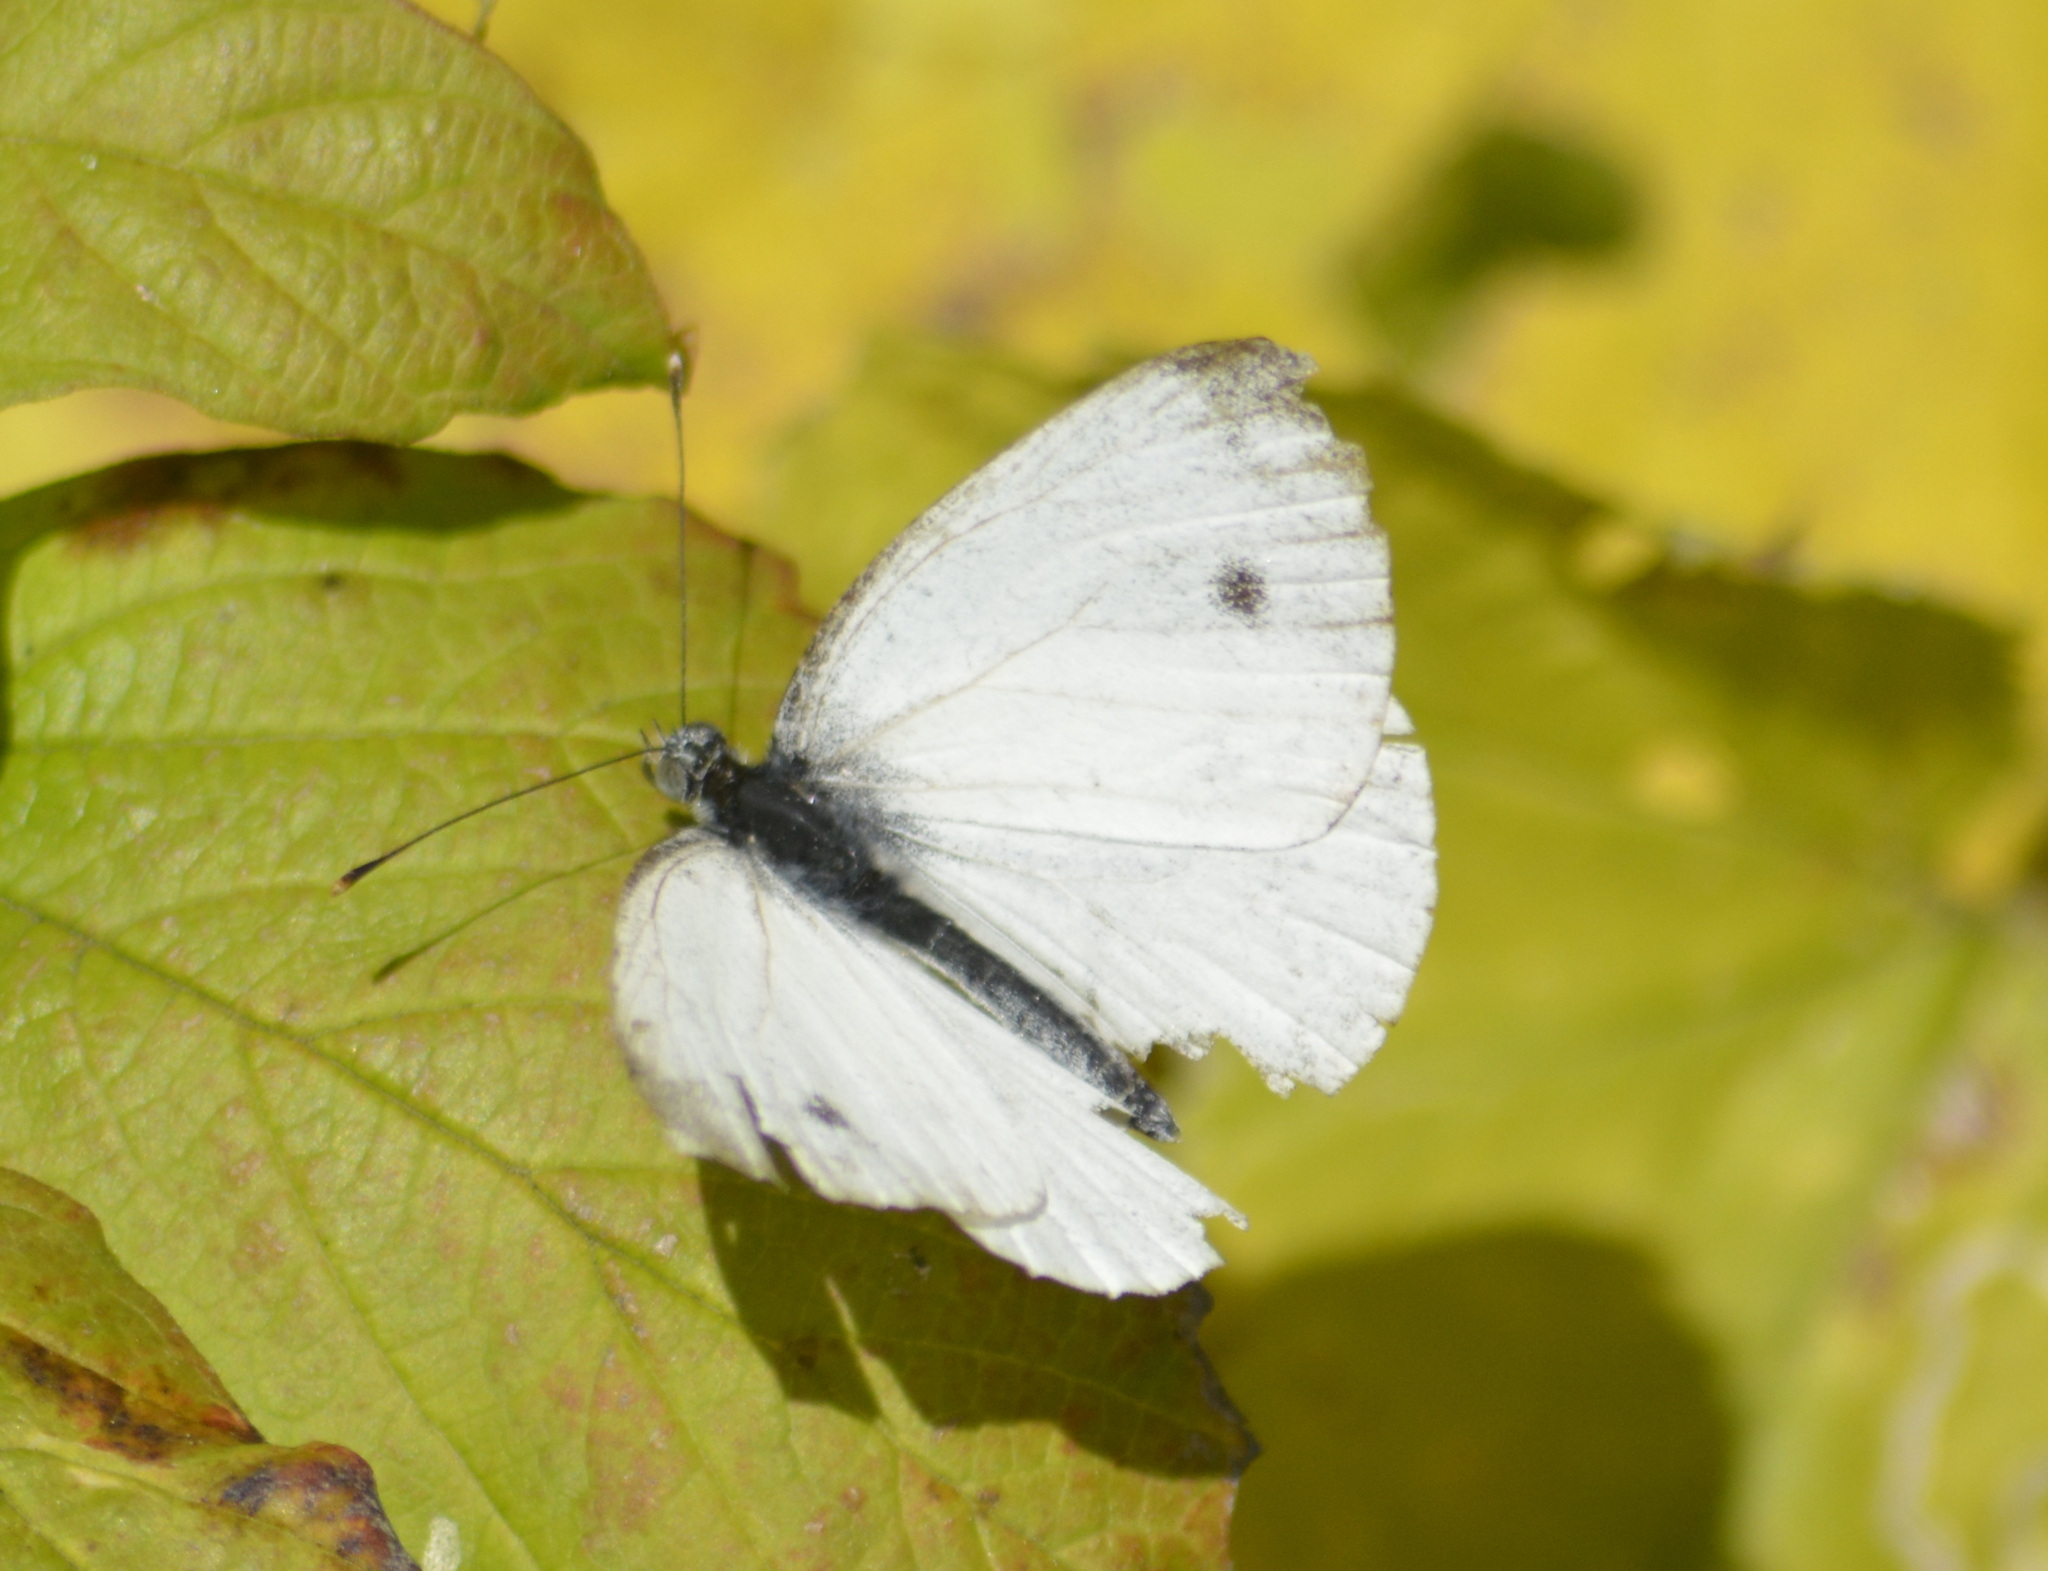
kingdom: Animalia
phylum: Arthropoda
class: Insecta
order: Lepidoptera
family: Pieridae
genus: Pieris
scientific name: Pieris napi
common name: Green-veined white
